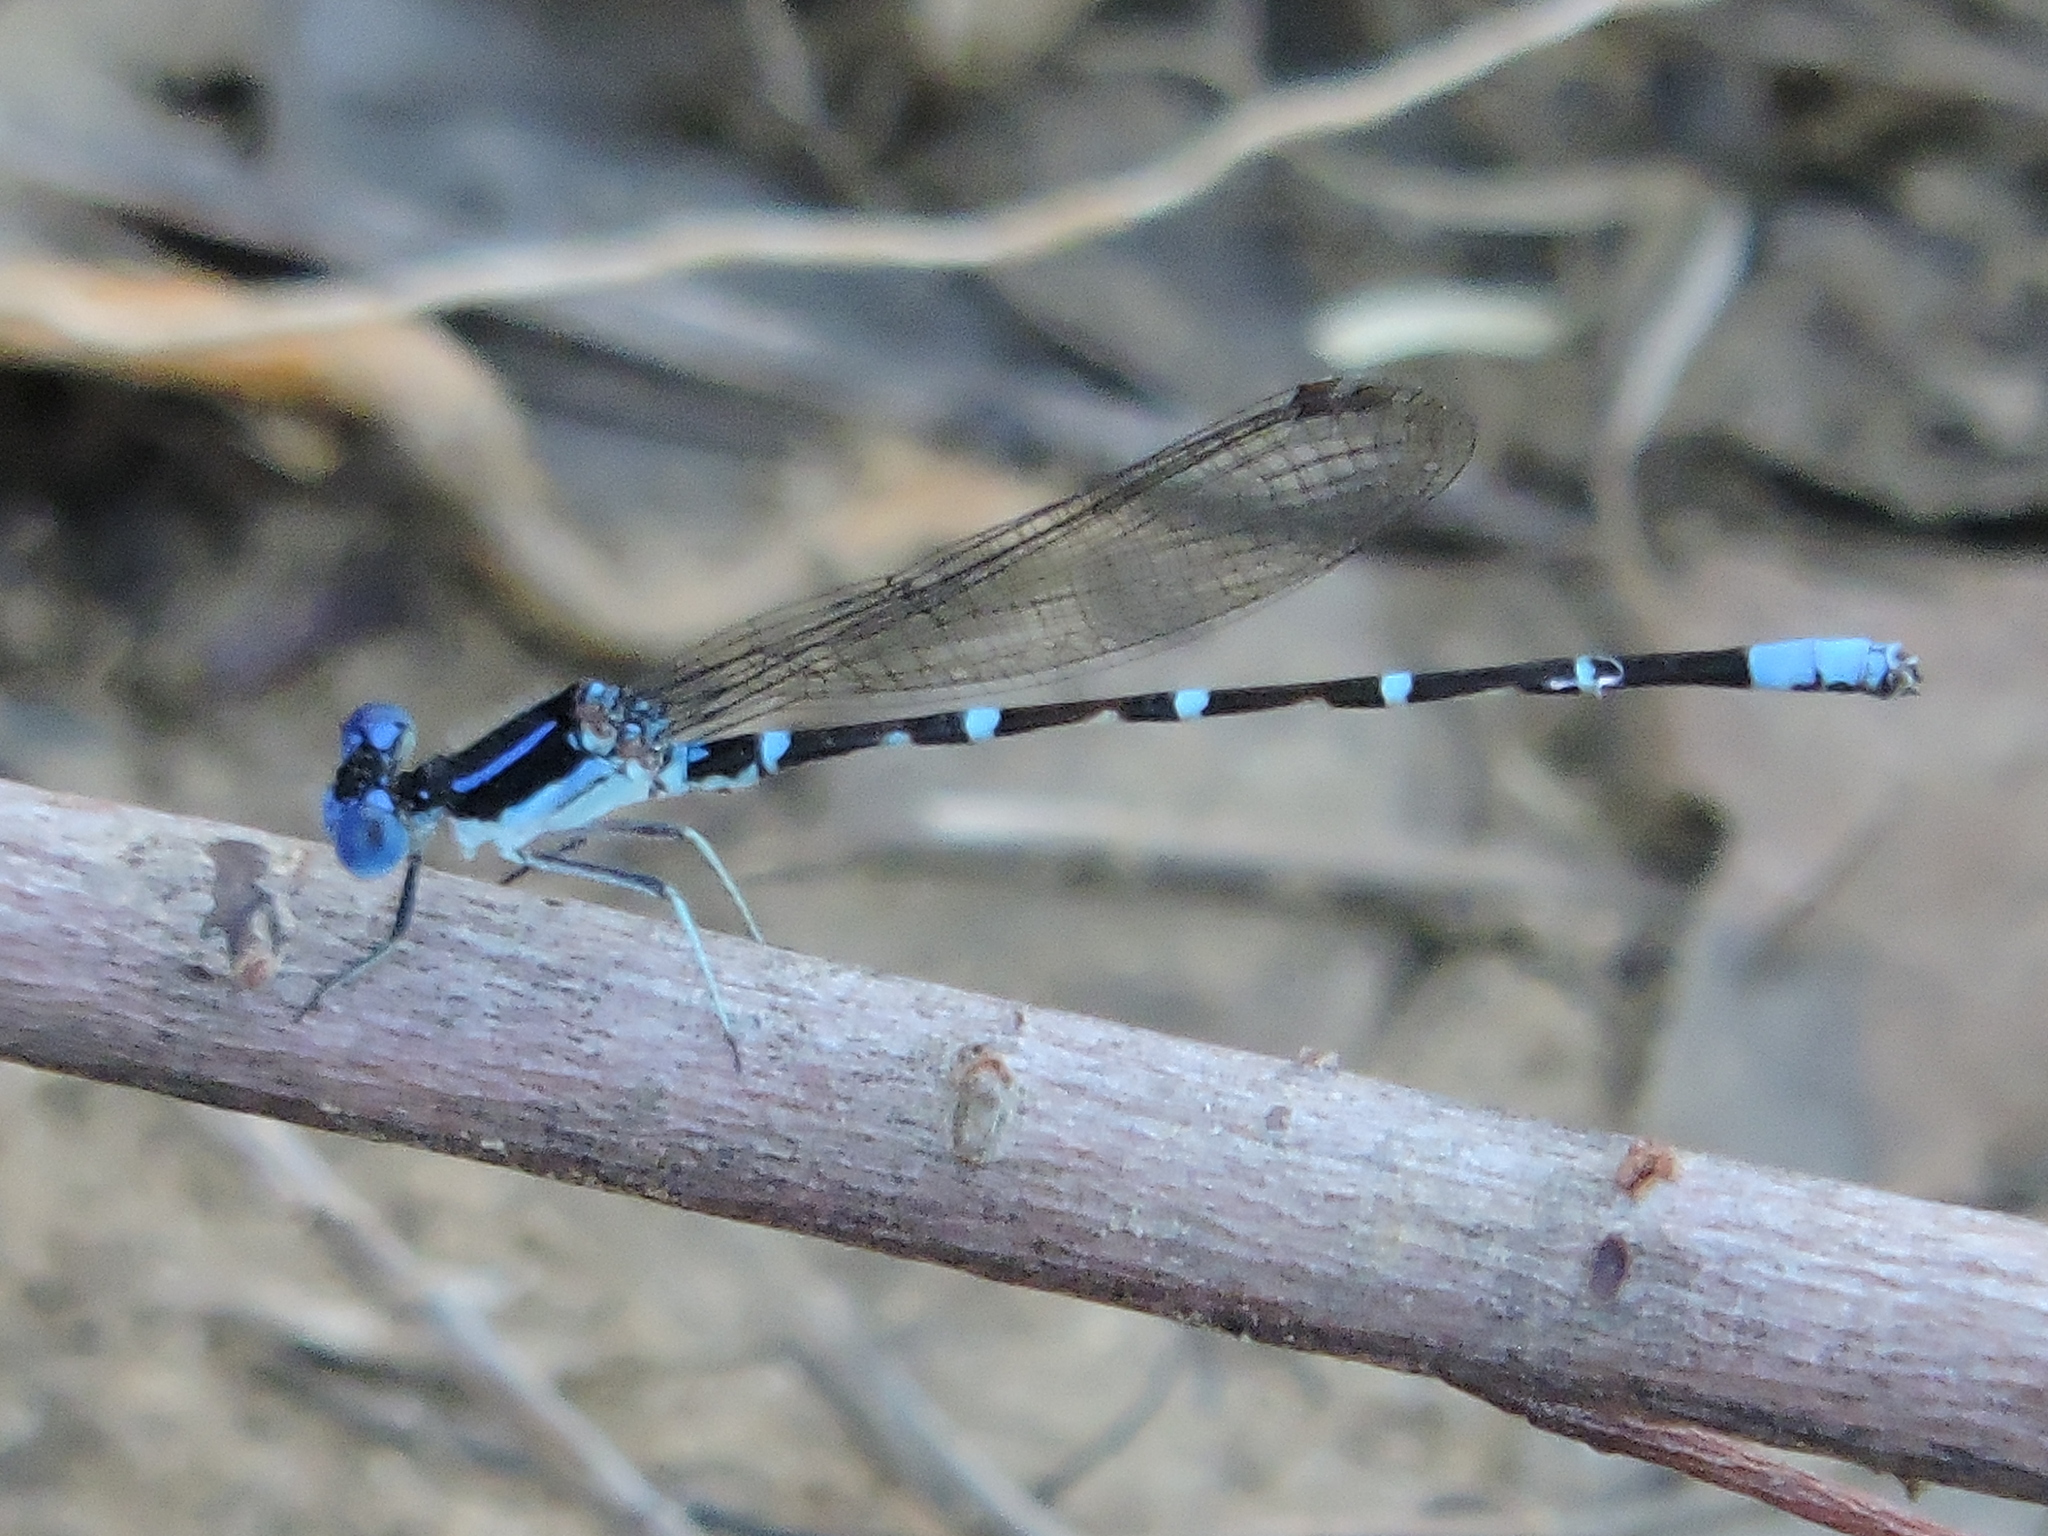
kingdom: Animalia
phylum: Arthropoda
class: Insecta
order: Odonata
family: Coenagrionidae
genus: Argia
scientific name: Argia sedula
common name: Blue-ringed dancer
